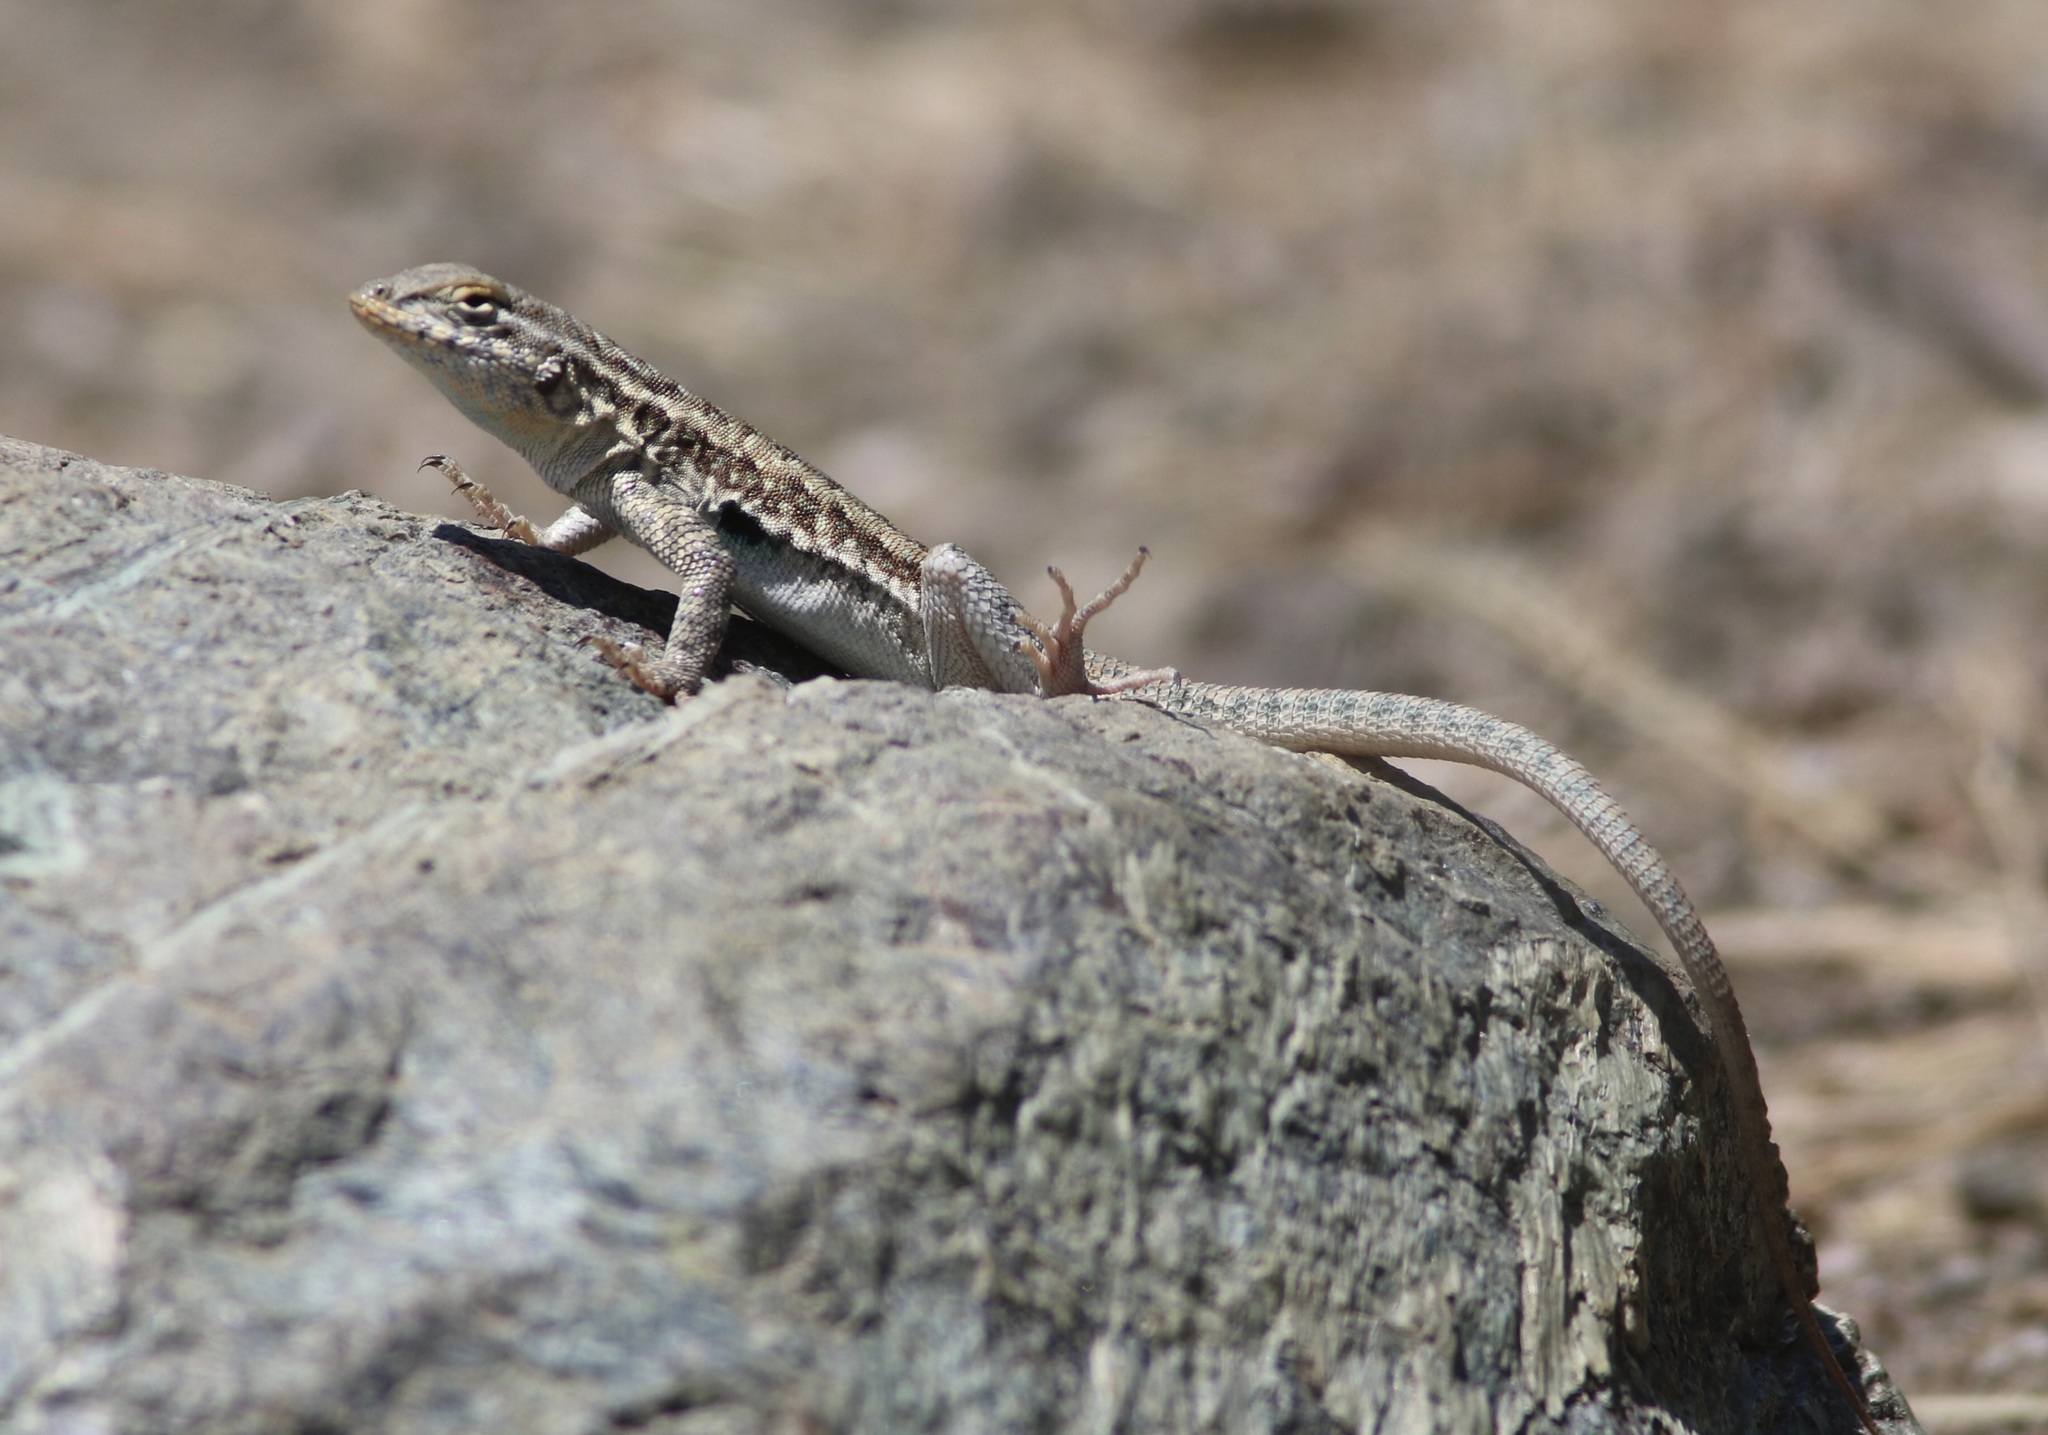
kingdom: Animalia
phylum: Chordata
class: Squamata
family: Phrynosomatidae
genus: Uta
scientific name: Uta stansburiana
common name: Side-blotched lizard
